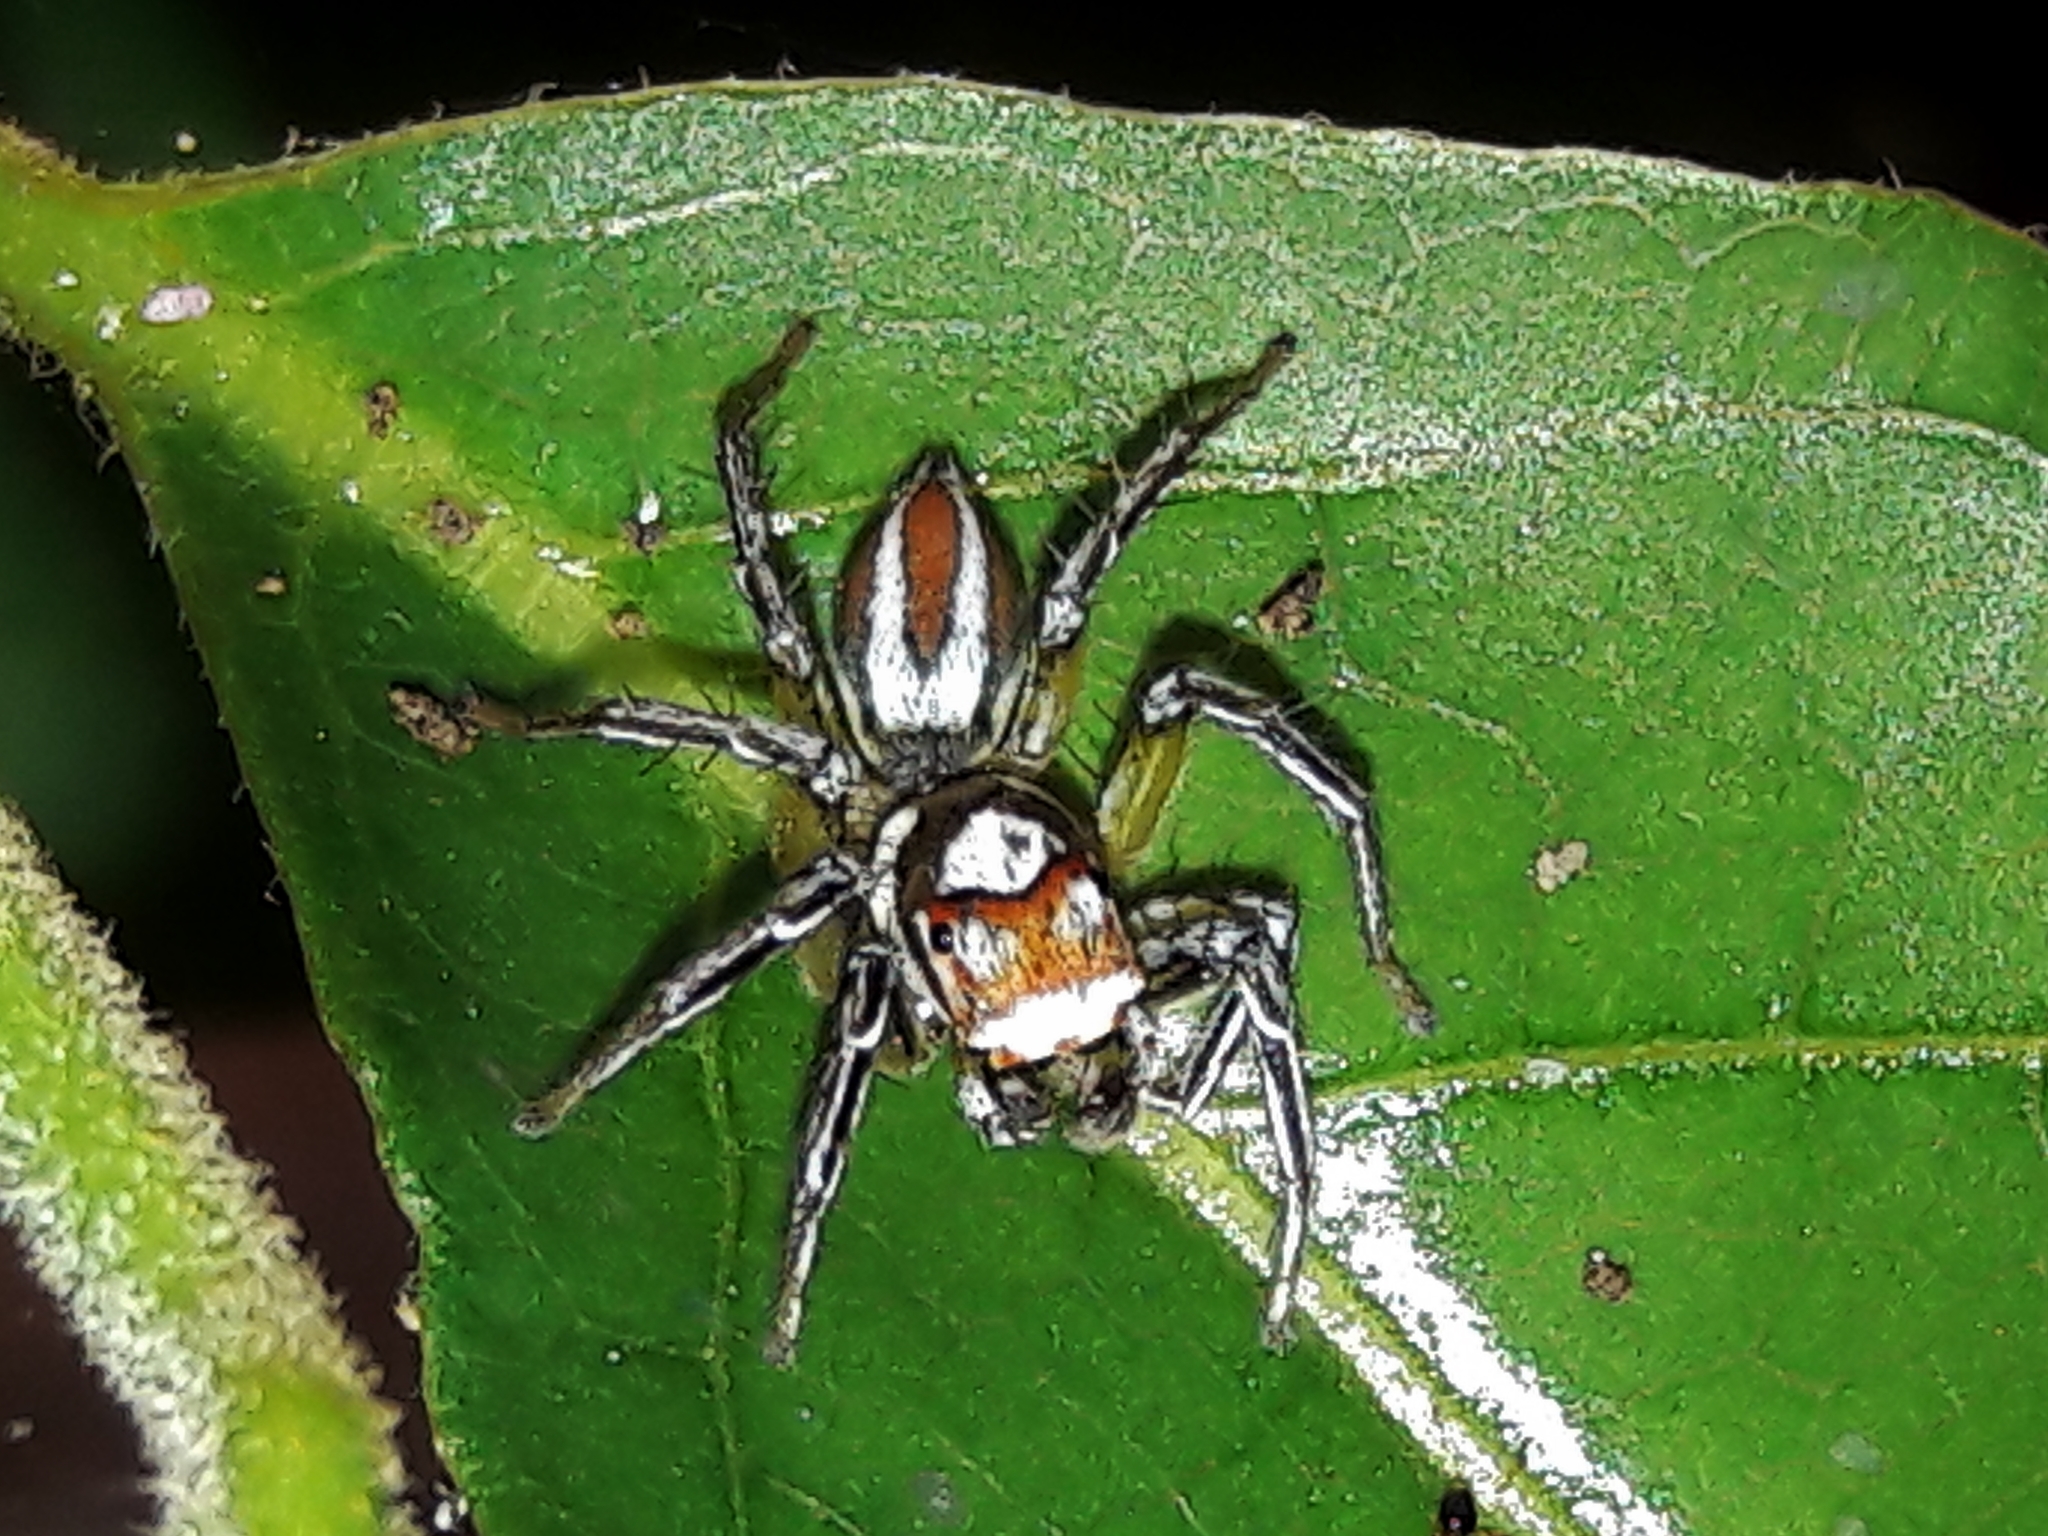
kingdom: Animalia
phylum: Arthropoda
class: Arachnida
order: Araneae
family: Salticidae
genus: Chira
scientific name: Chira simoni
